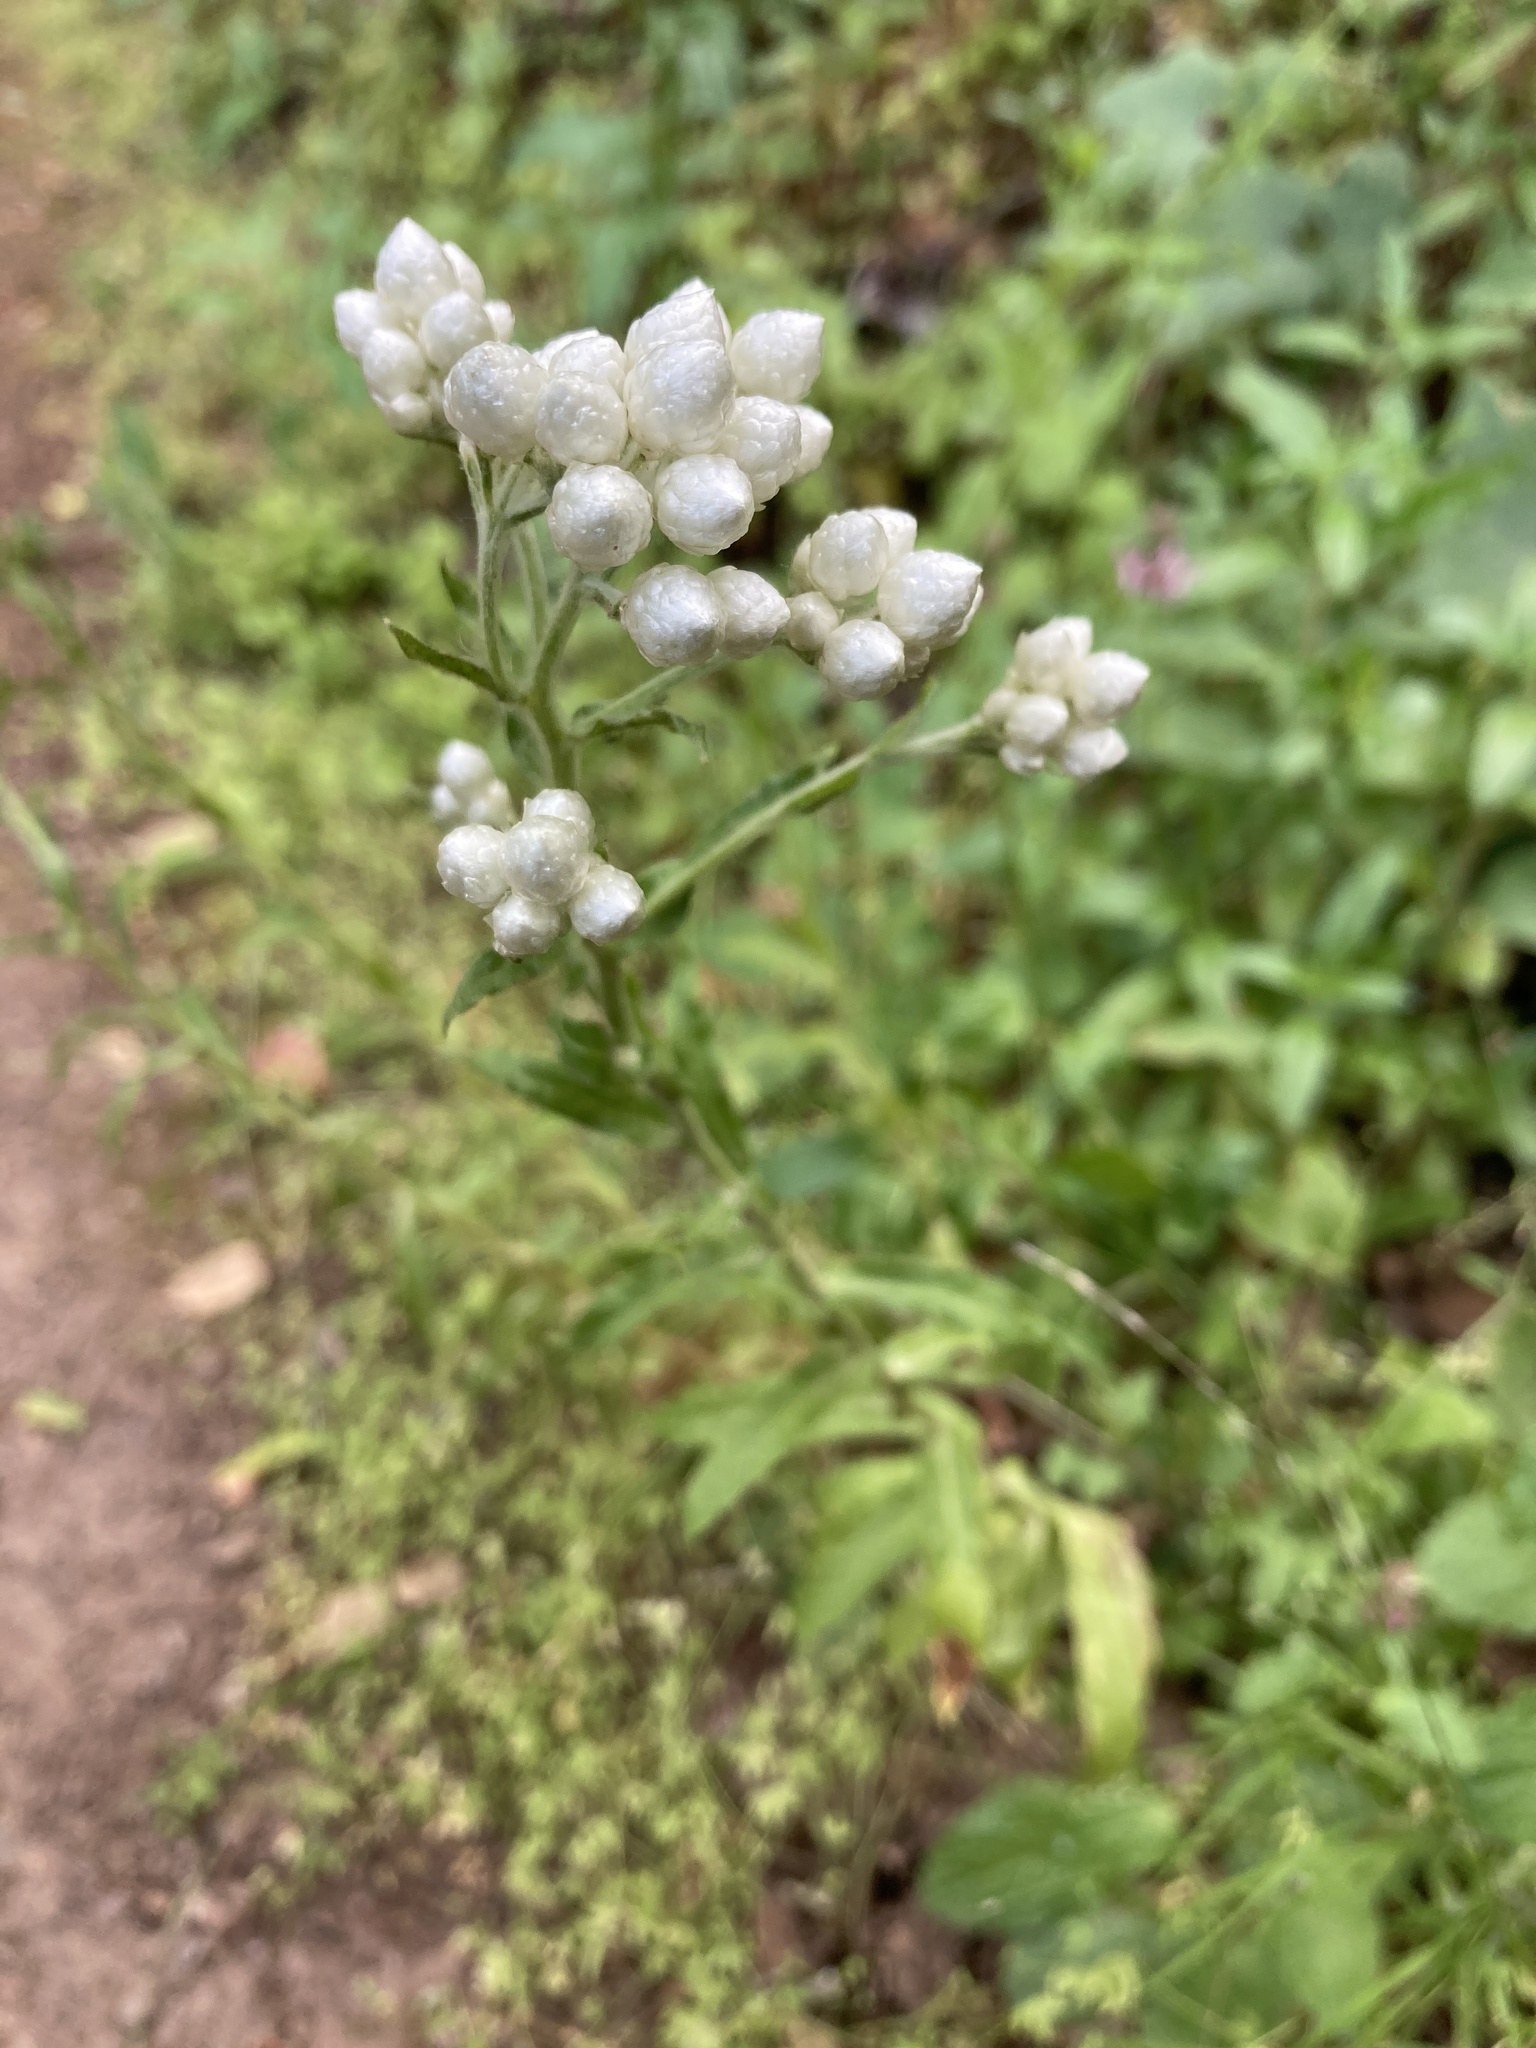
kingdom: Plantae
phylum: Tracheophyta
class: Magnoliopsida
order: Asterales
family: Asteraceae
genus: Pseudognaphalium
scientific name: Pseudognaphalium californicum
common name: California rabbit-tobacco
